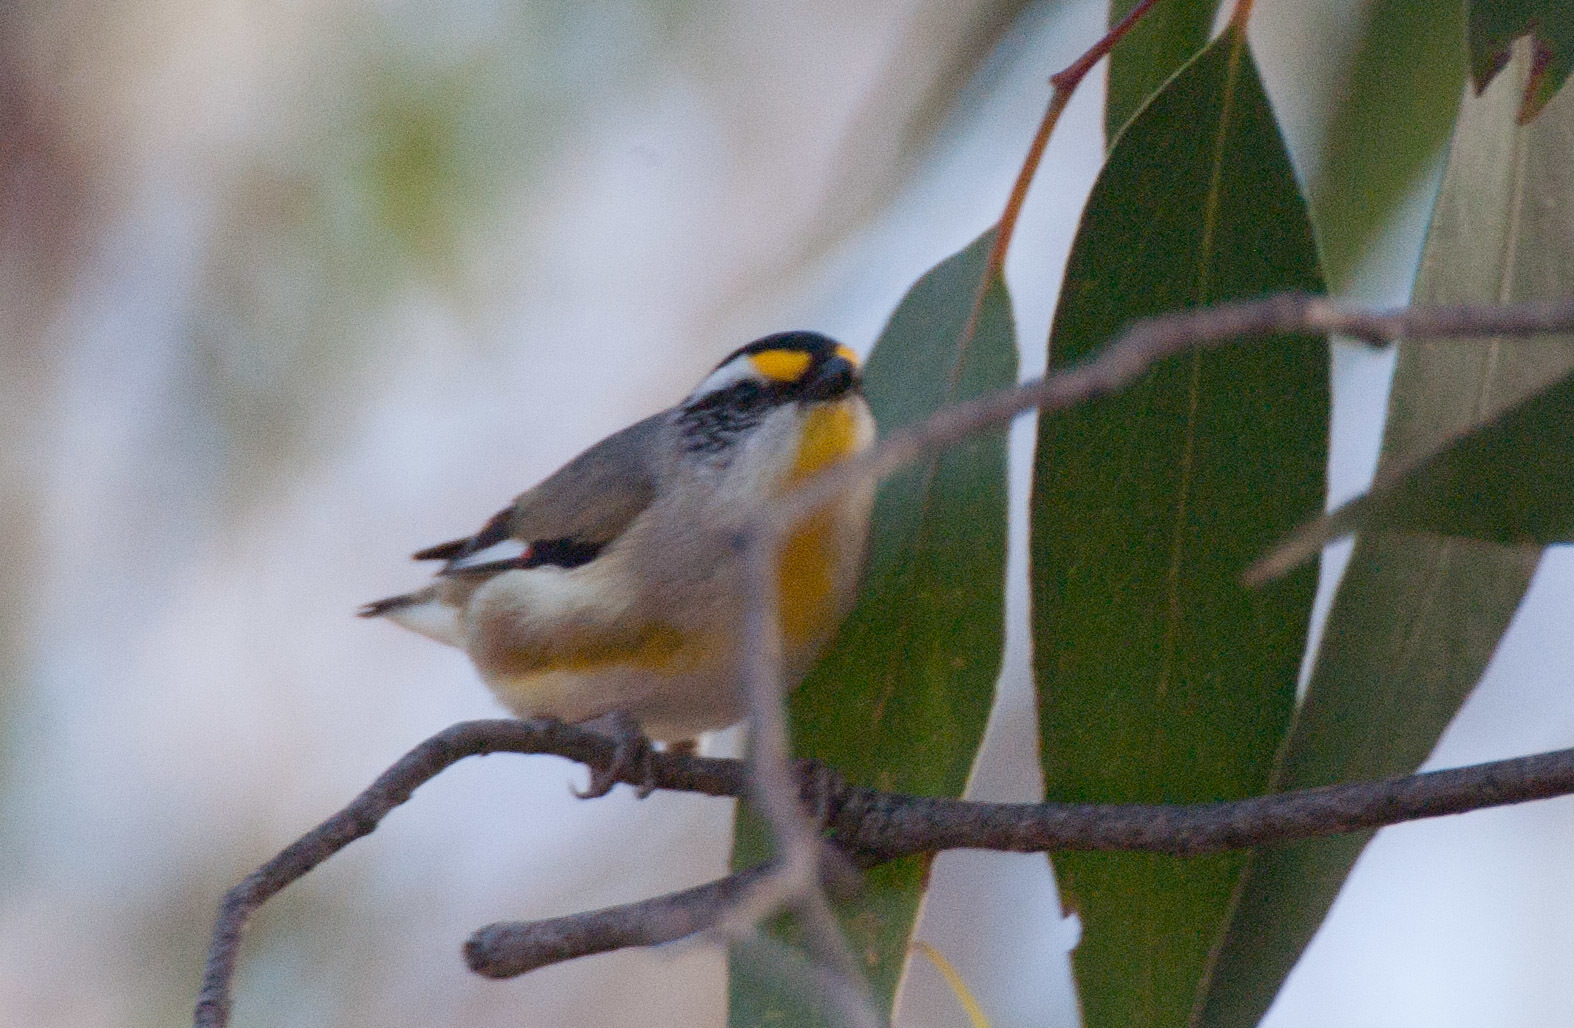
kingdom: Animalia
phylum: Chordata
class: Aves
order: Passeriformes
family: Pardalotidae
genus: Pardalotus
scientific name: Pardalotus striatus
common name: Striated pardalote
